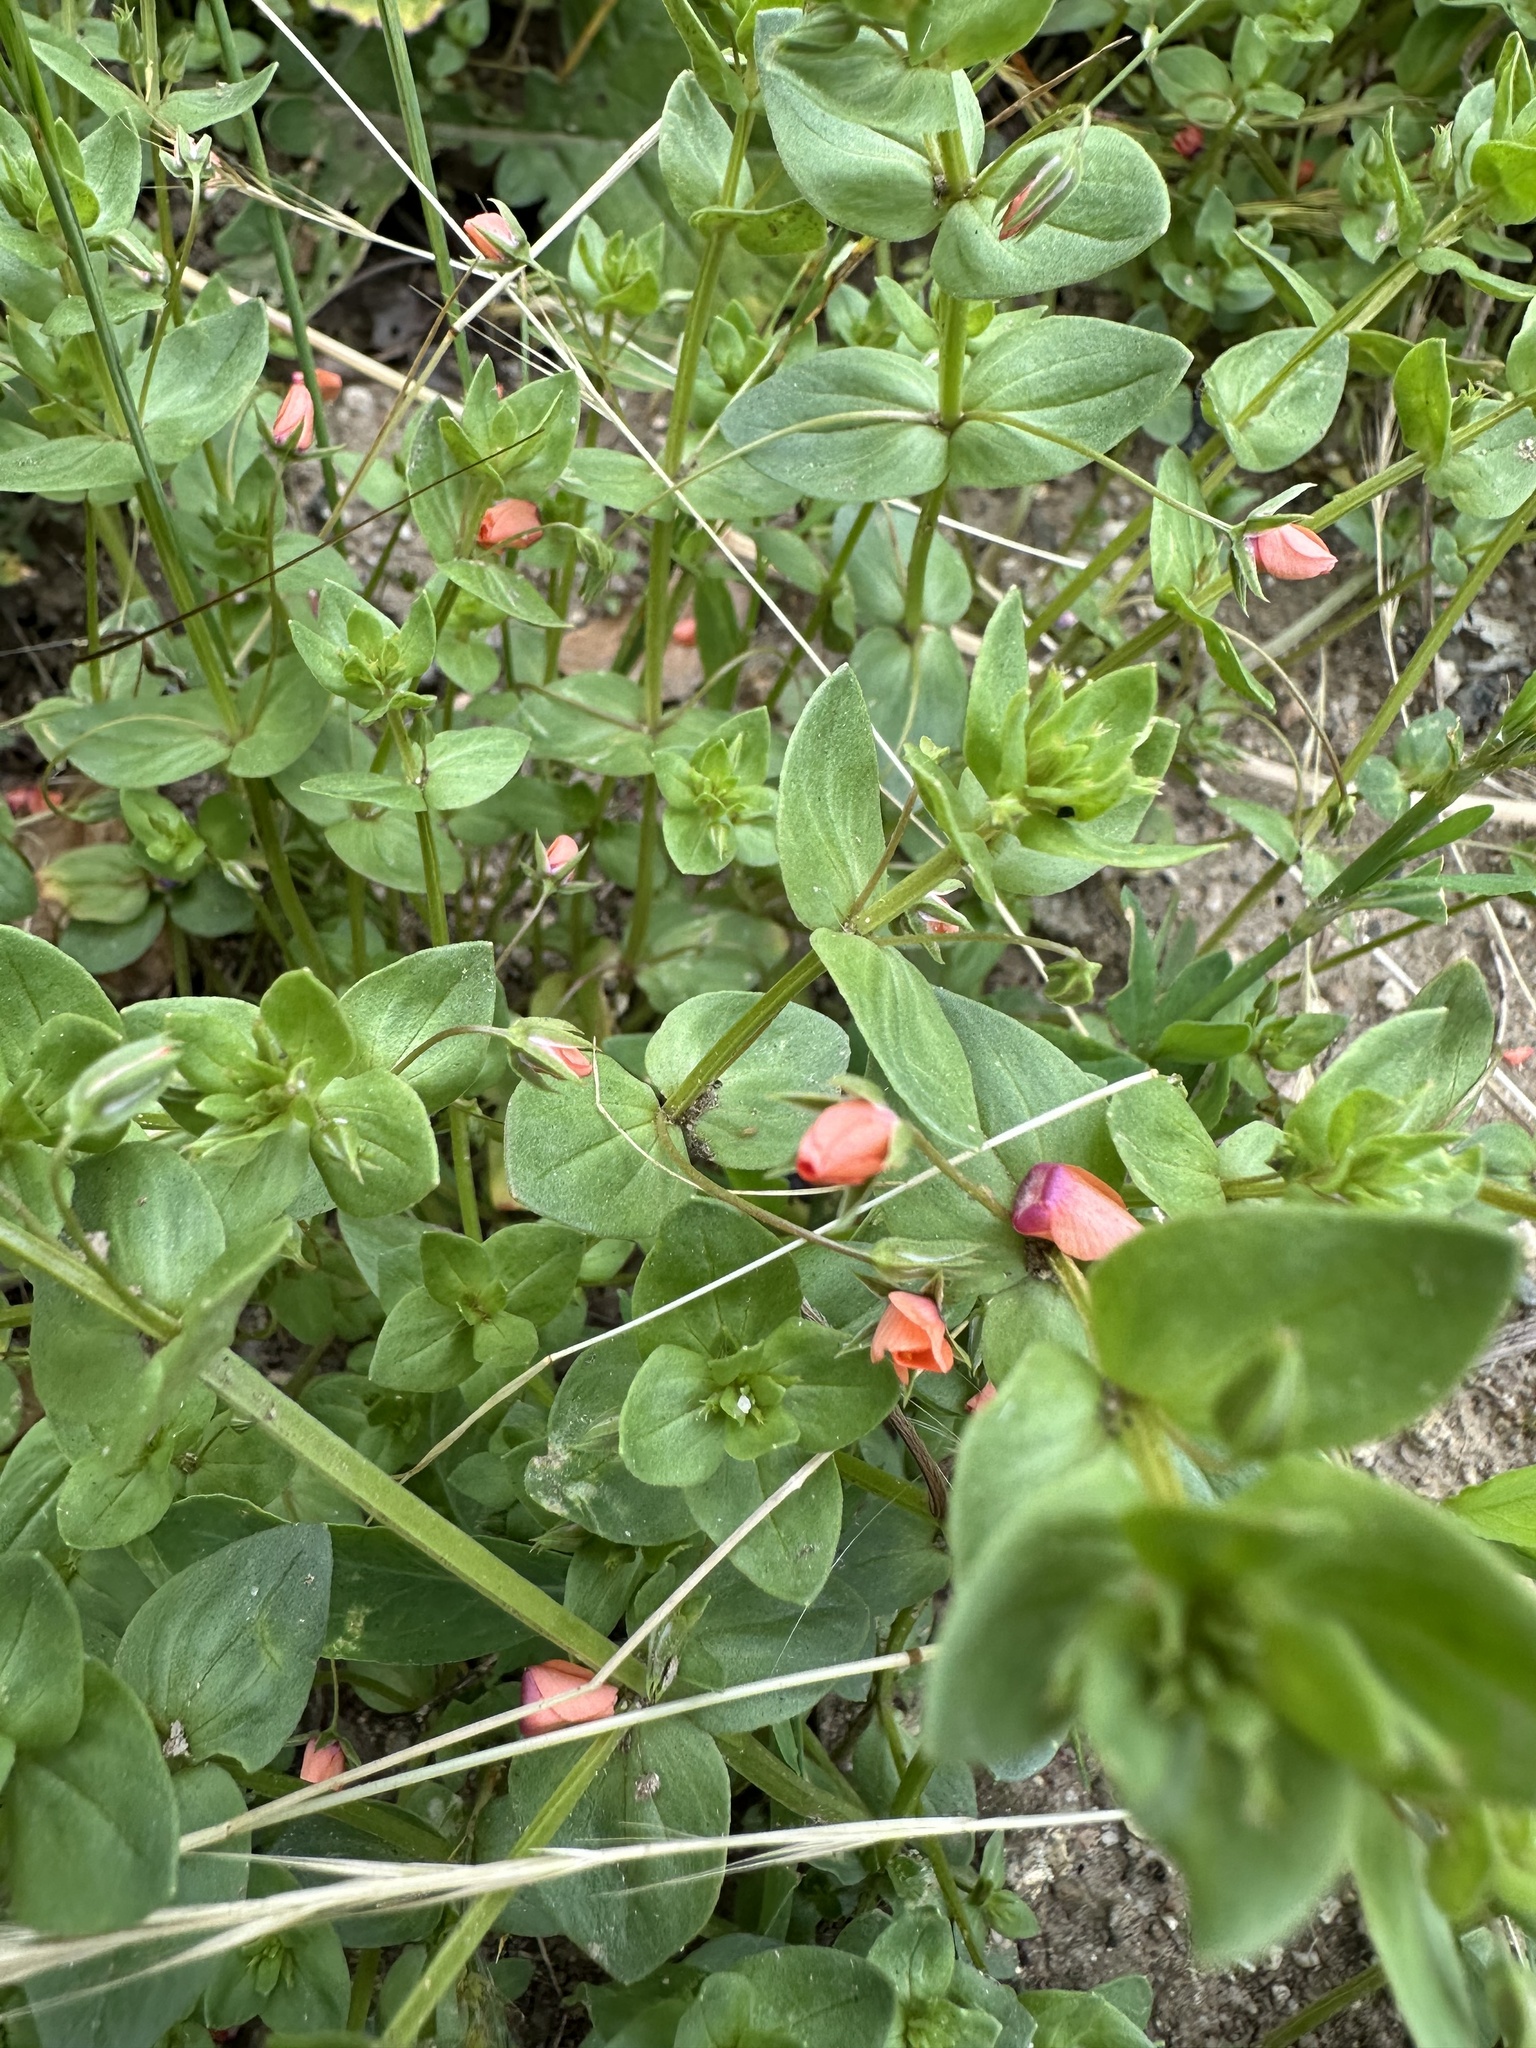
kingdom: Plantae
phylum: Tracheophyta
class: Magnoliopsida
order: Ericales
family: Primulaceae
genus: Lysimachia
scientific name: Lysimachia arvensis
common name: Scarlet pimpernel
